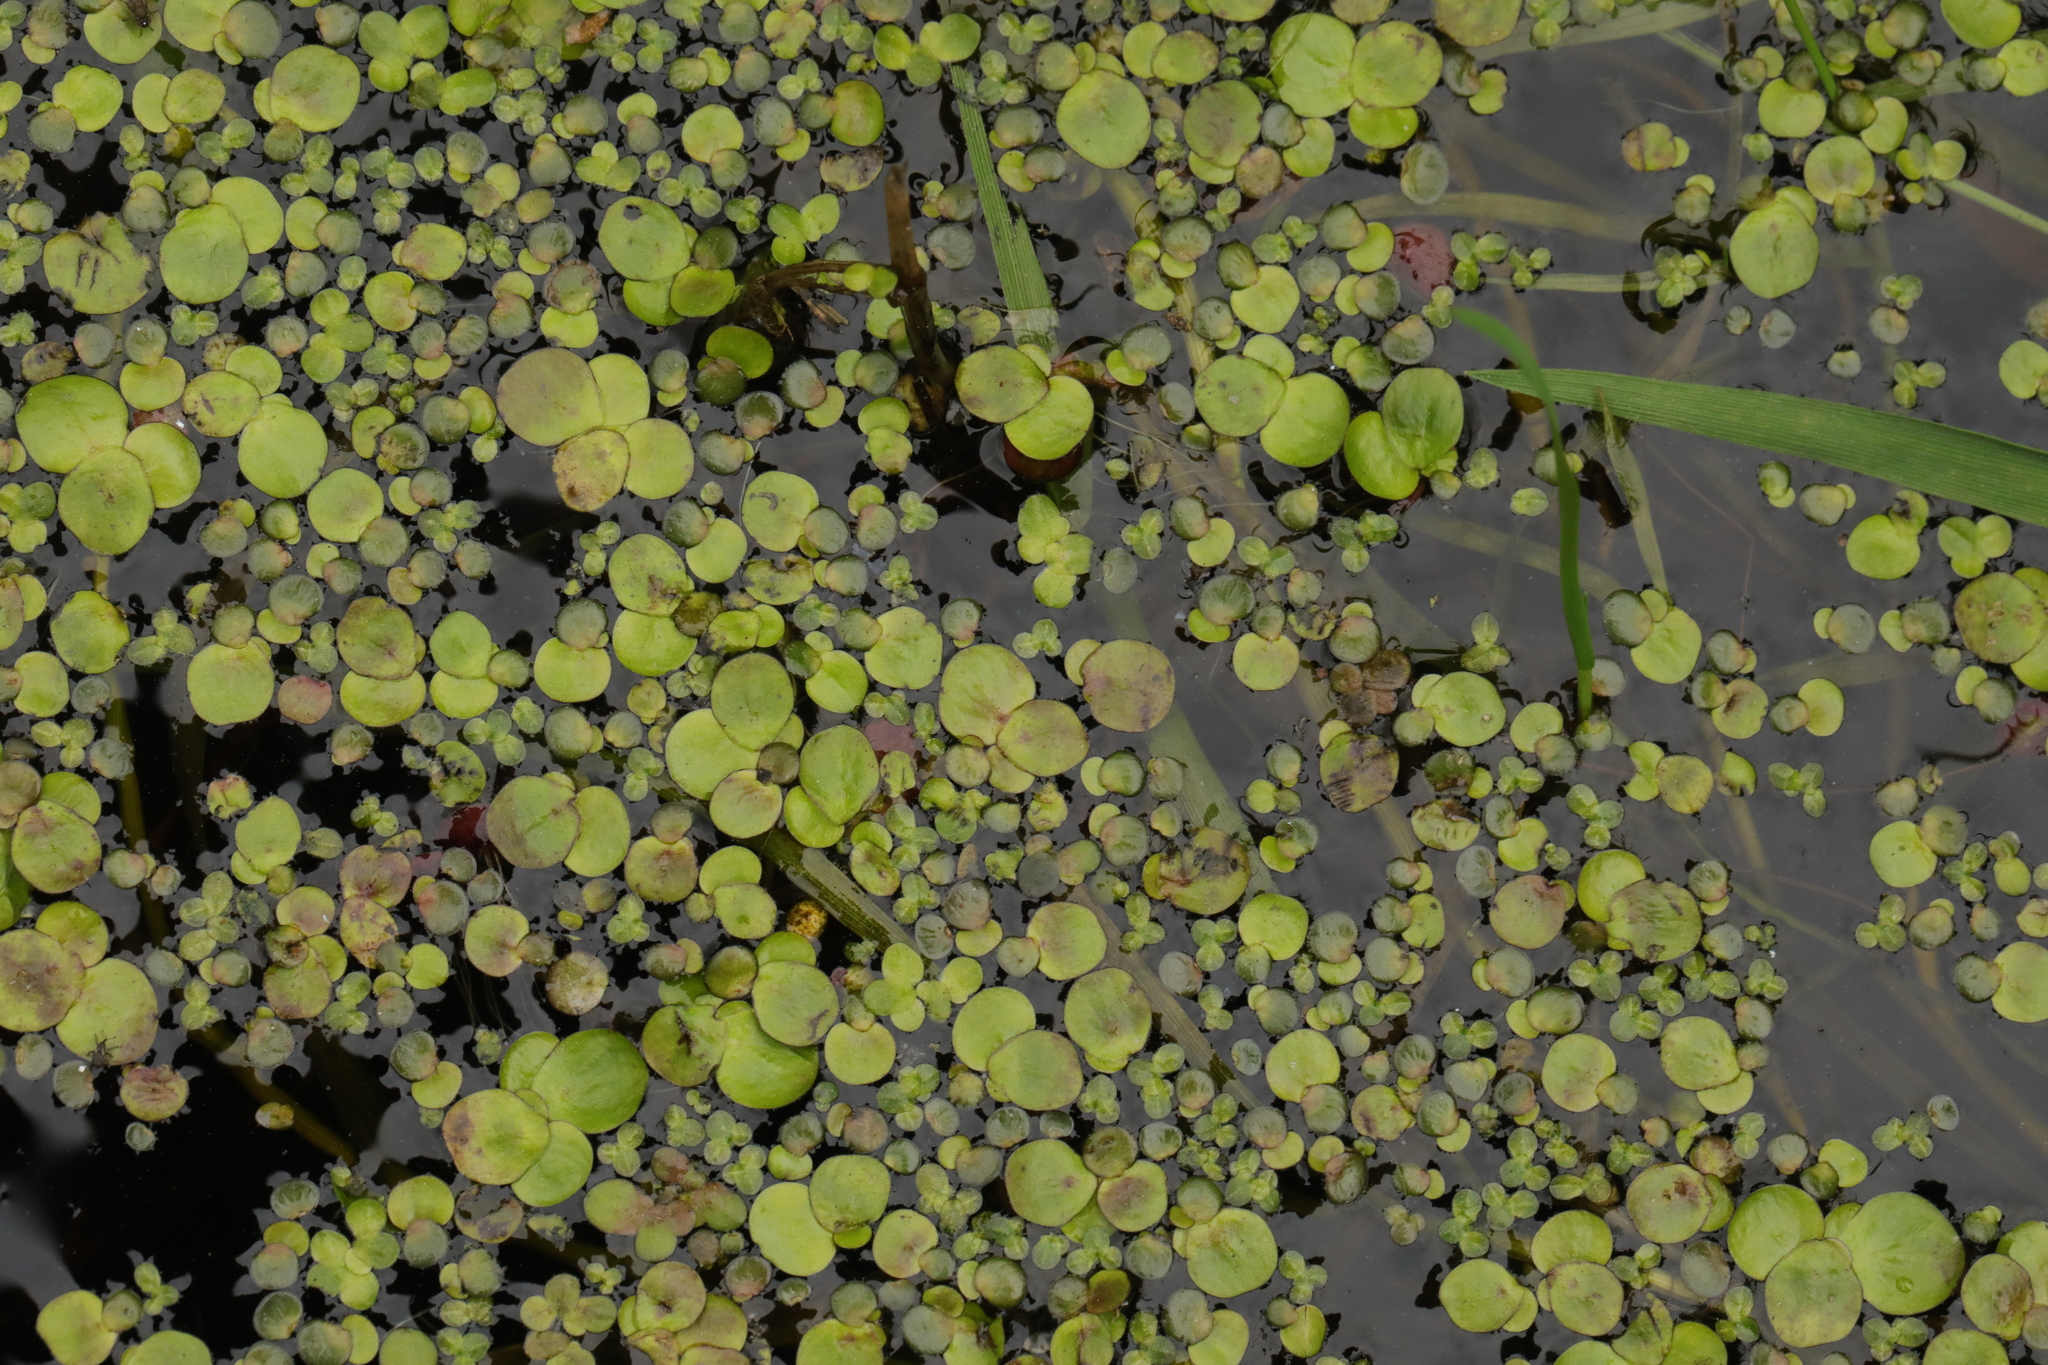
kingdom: Plantae
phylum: Tracheophyta
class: Liliopsida
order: Alismatales
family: Araceae
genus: Spirodela
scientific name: Spirodela polyrhiza
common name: Great duckweed
